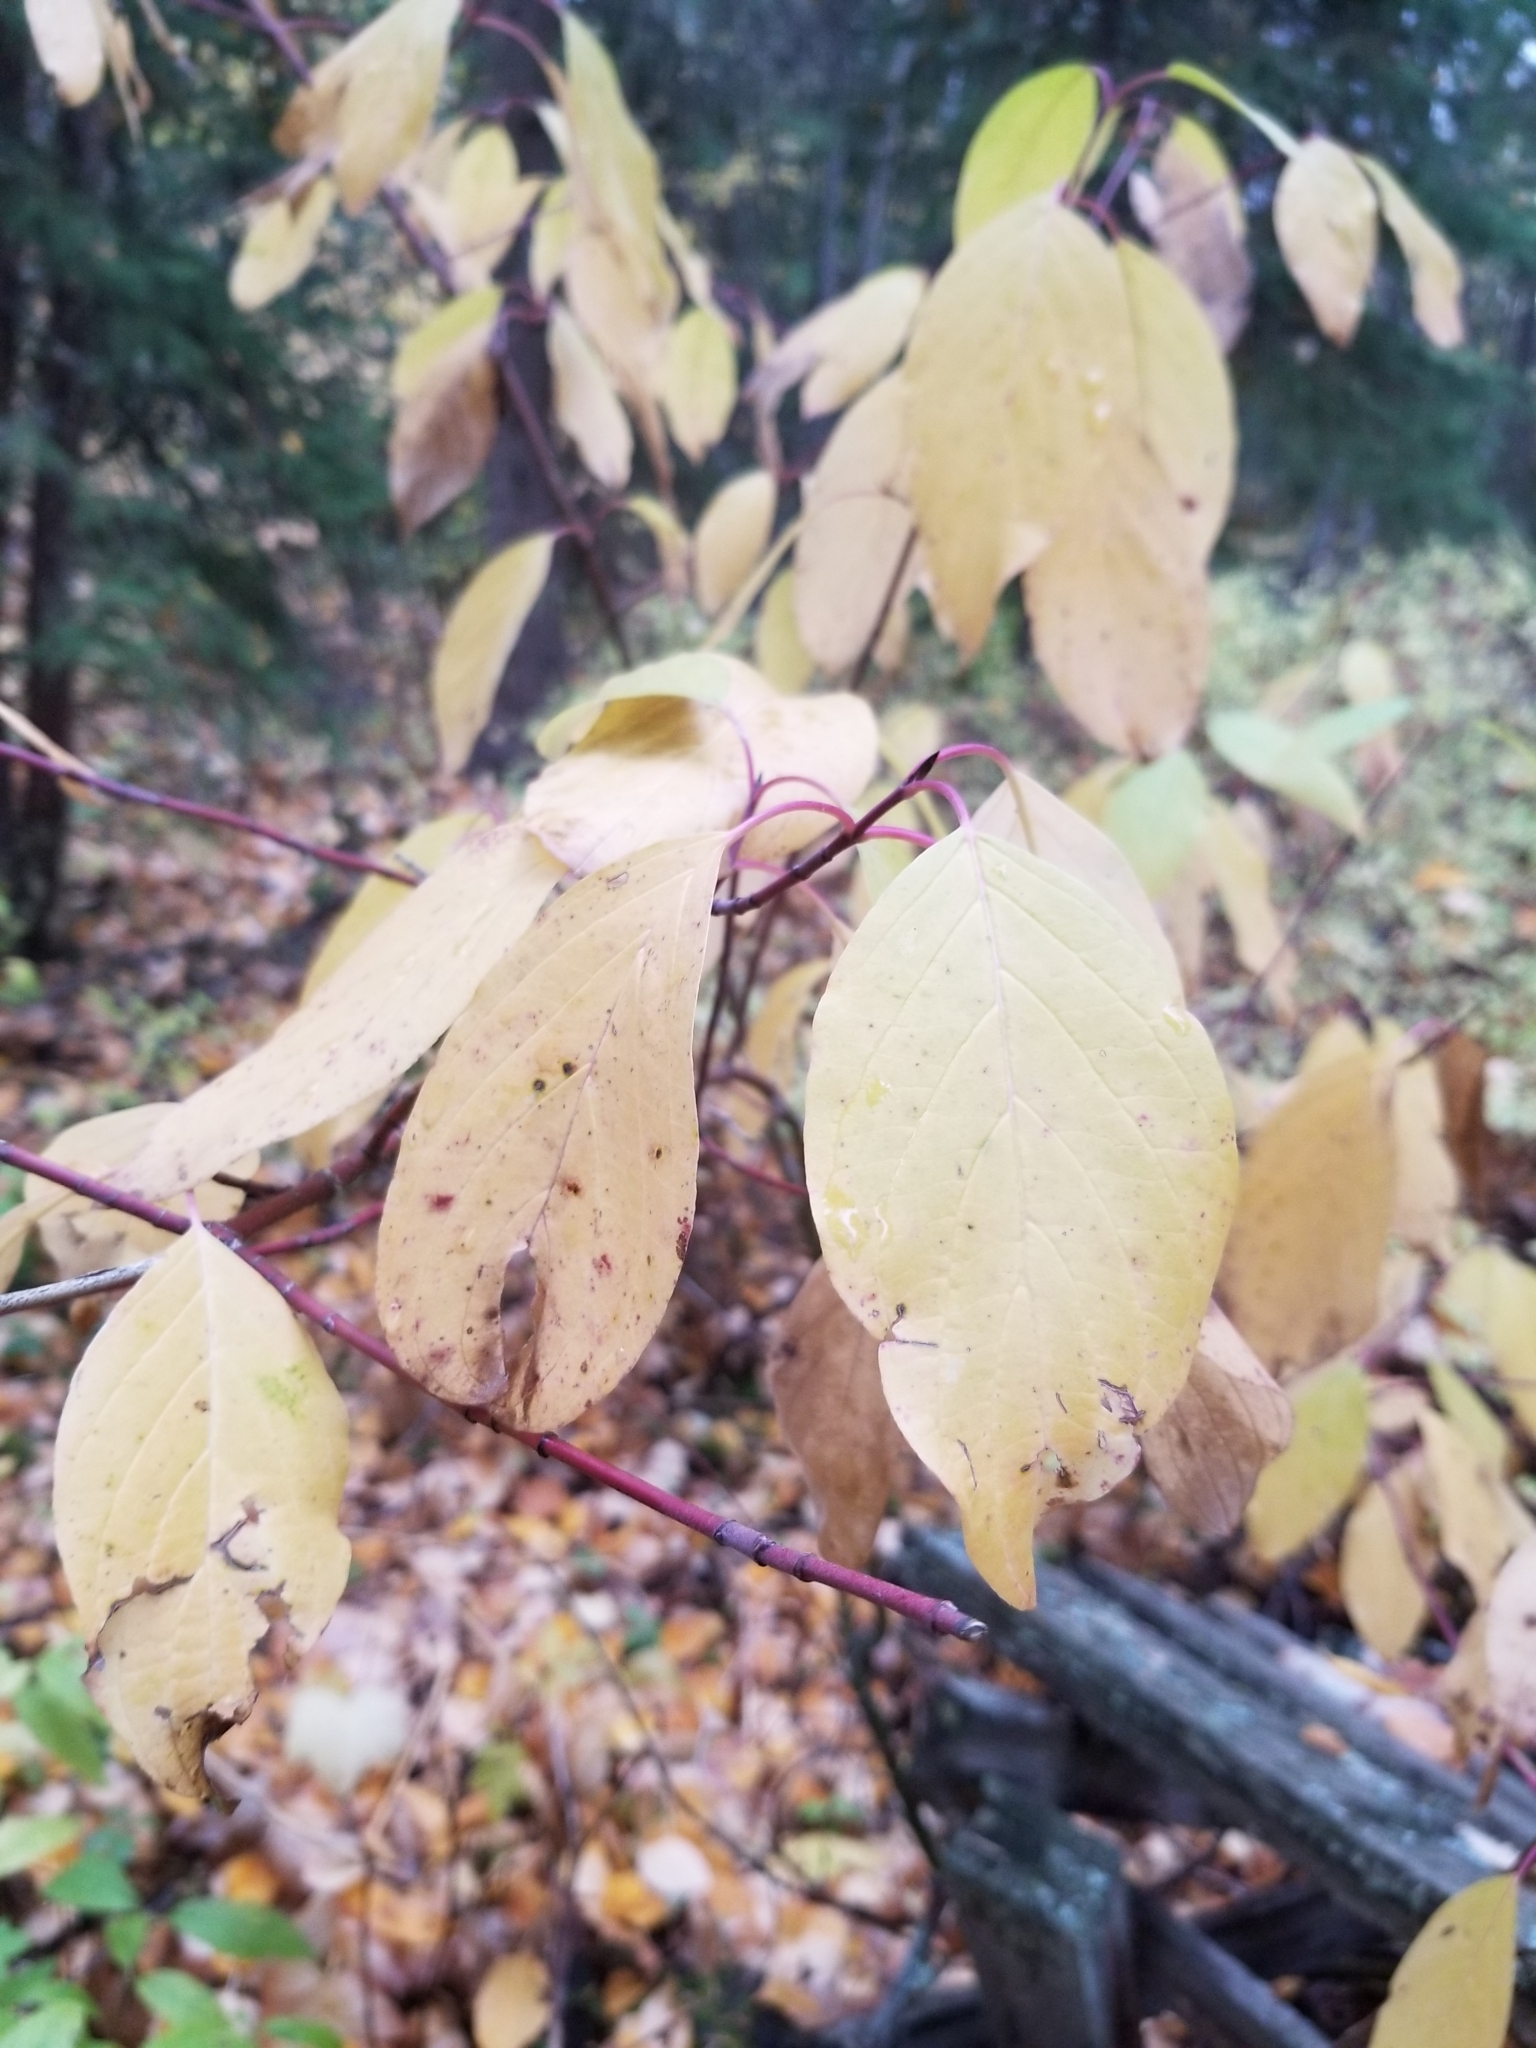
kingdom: Plantae
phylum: Tracheophyta
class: Magnoliopsida
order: Cornales
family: Cornaceae
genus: Cornus
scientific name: Cornus sericea
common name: Red-osier dogwood
